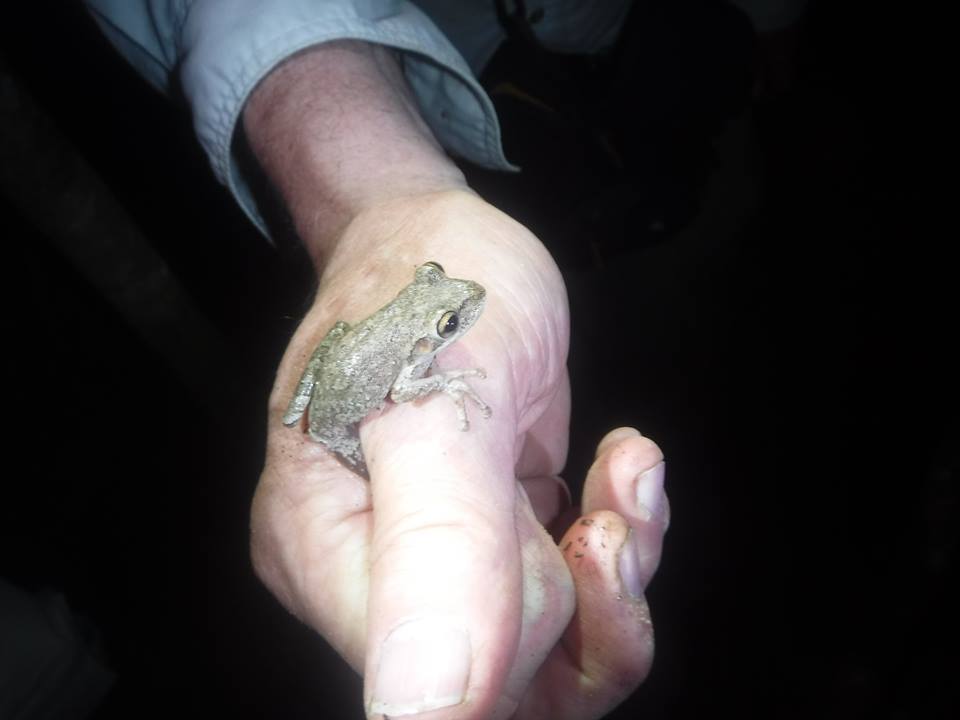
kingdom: Animalia
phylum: Chordata
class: Amphibia
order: Anura
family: Hylidae
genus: Osteopilus
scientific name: Osteopilus septentrionalis
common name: Cuban treefrog
